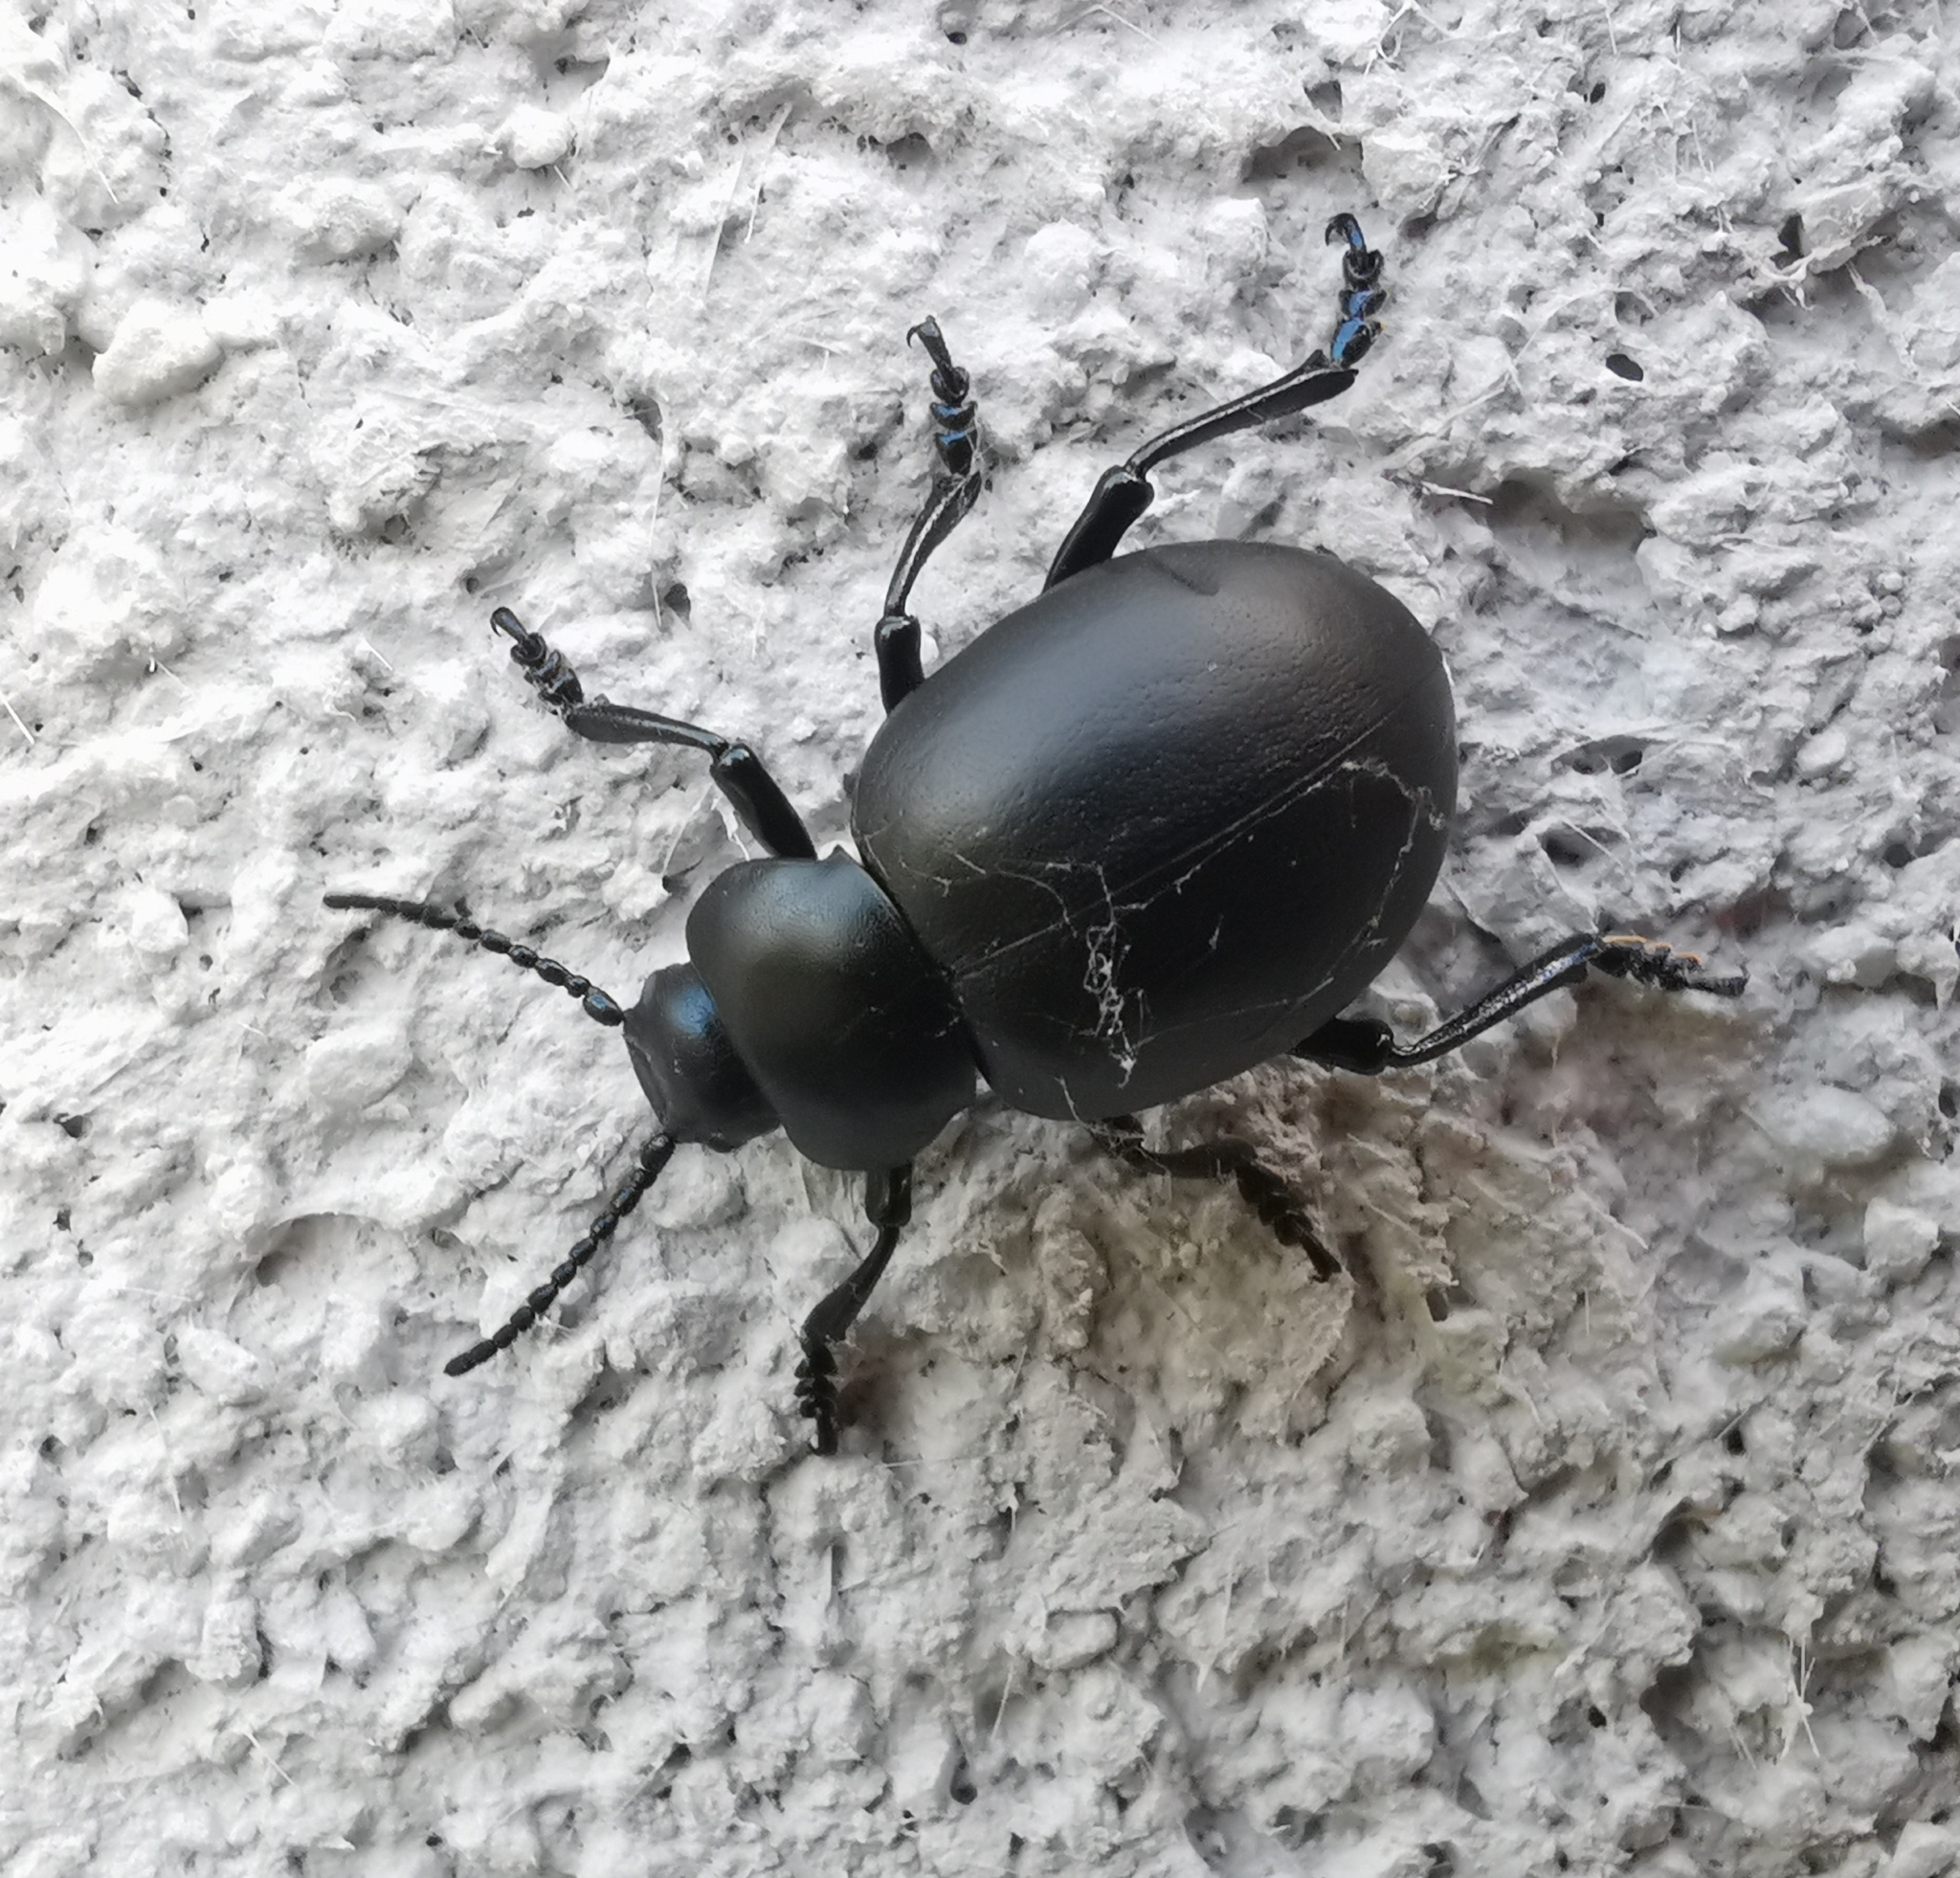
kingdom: Animalia
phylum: Arthropoda
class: Insecta
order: Coleoptera
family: Chrysomelidae
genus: Timarcha
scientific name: Timarcha tenebricosa
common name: Bloody-nosed beetle
